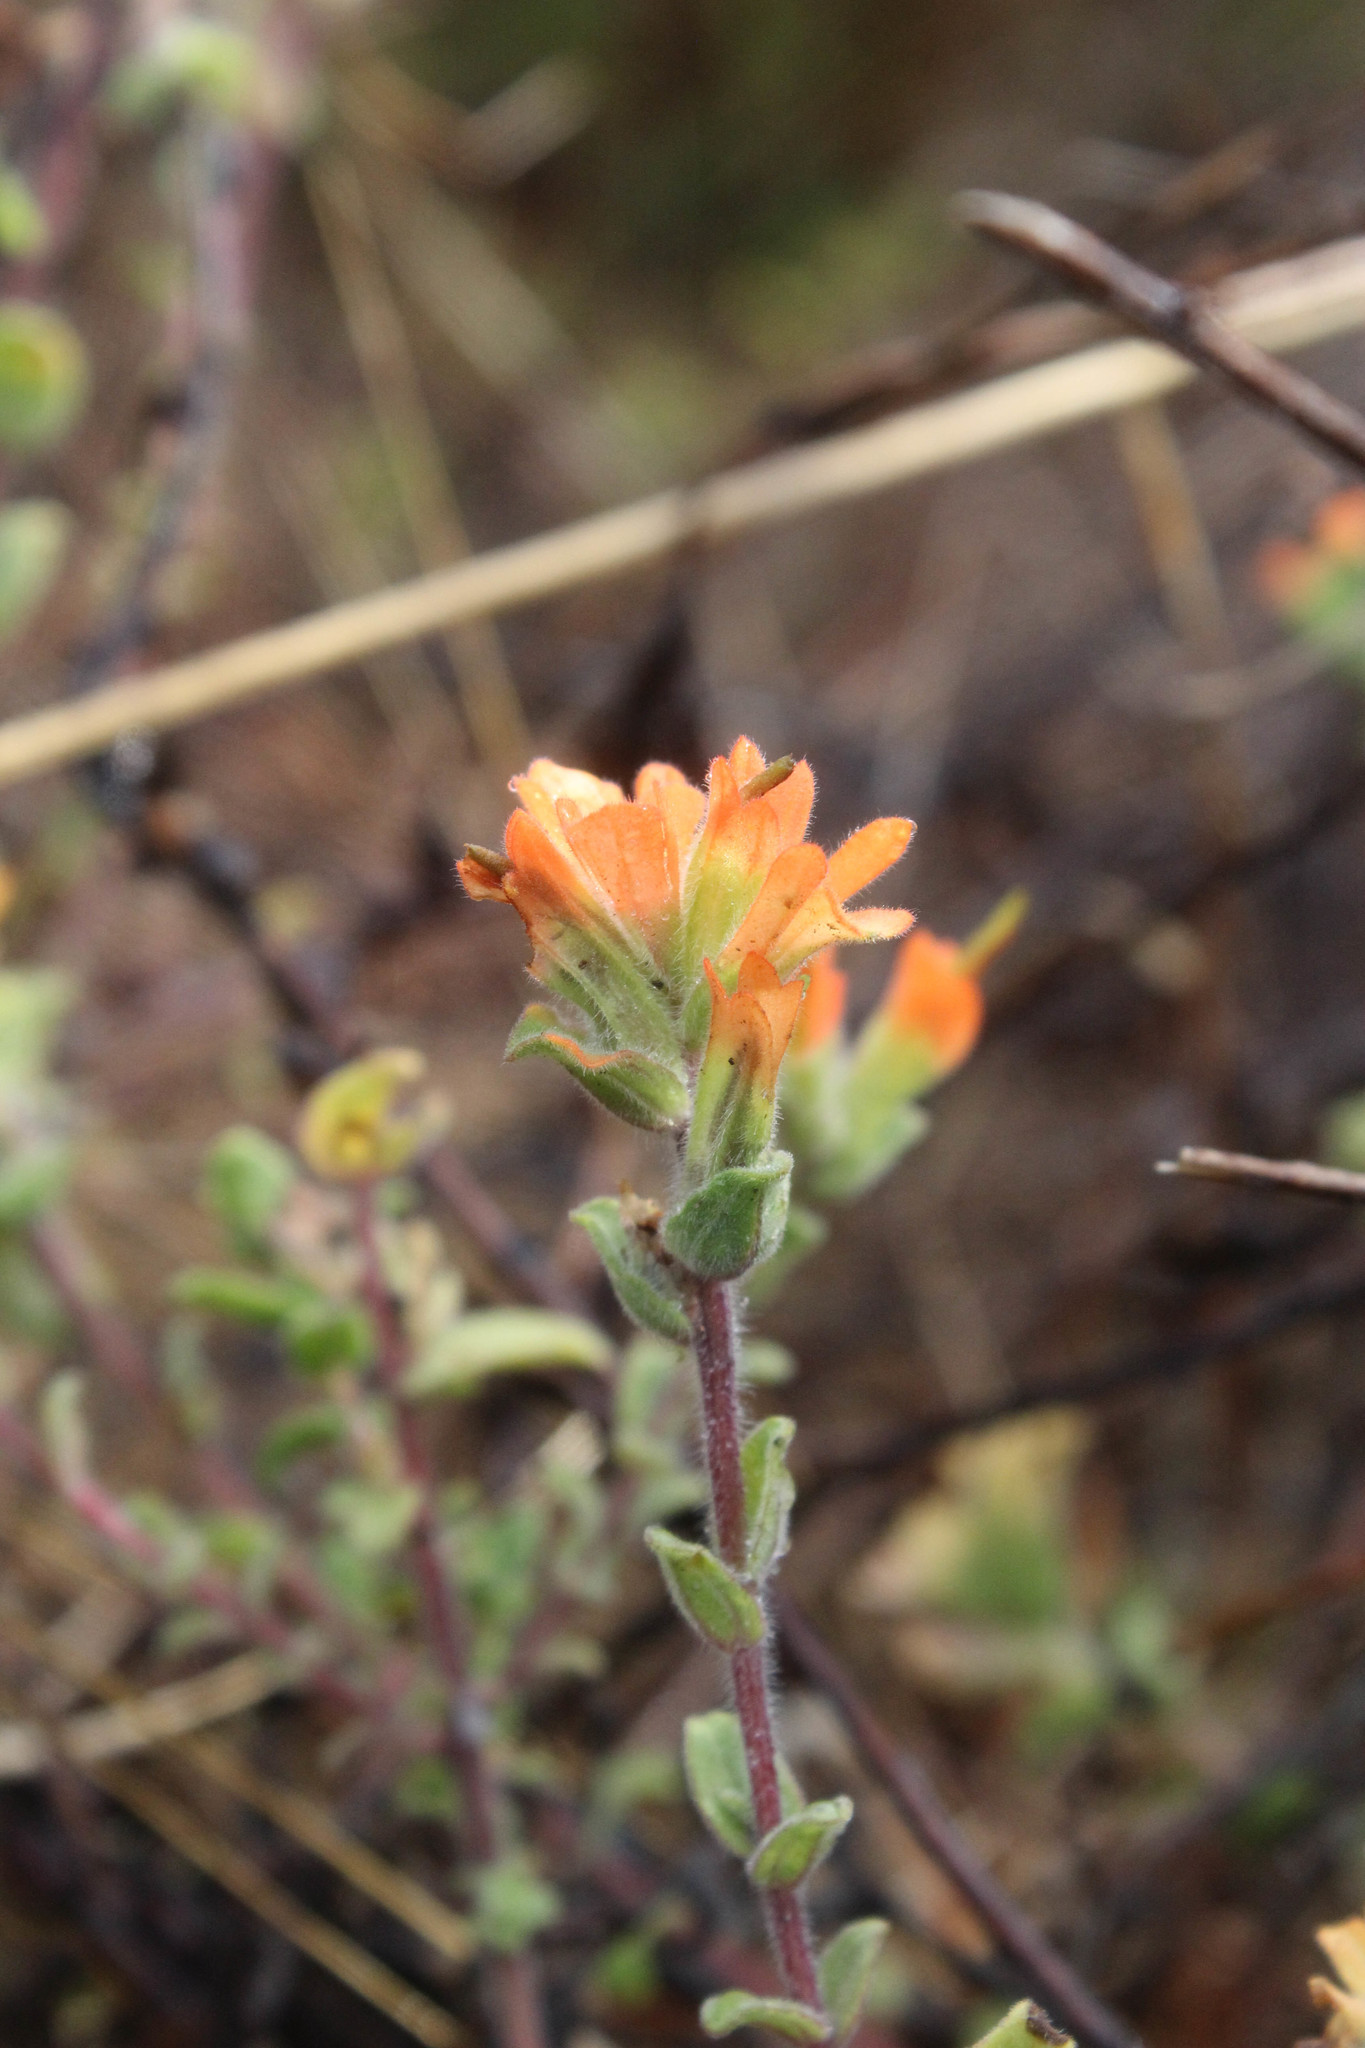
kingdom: Plantae
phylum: Tracheophyta
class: Magnoliopsida
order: Lamiales
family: Orobanchaceae
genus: Castilleja
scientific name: Castilleja latifolia
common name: Monterey indian paintbrush
